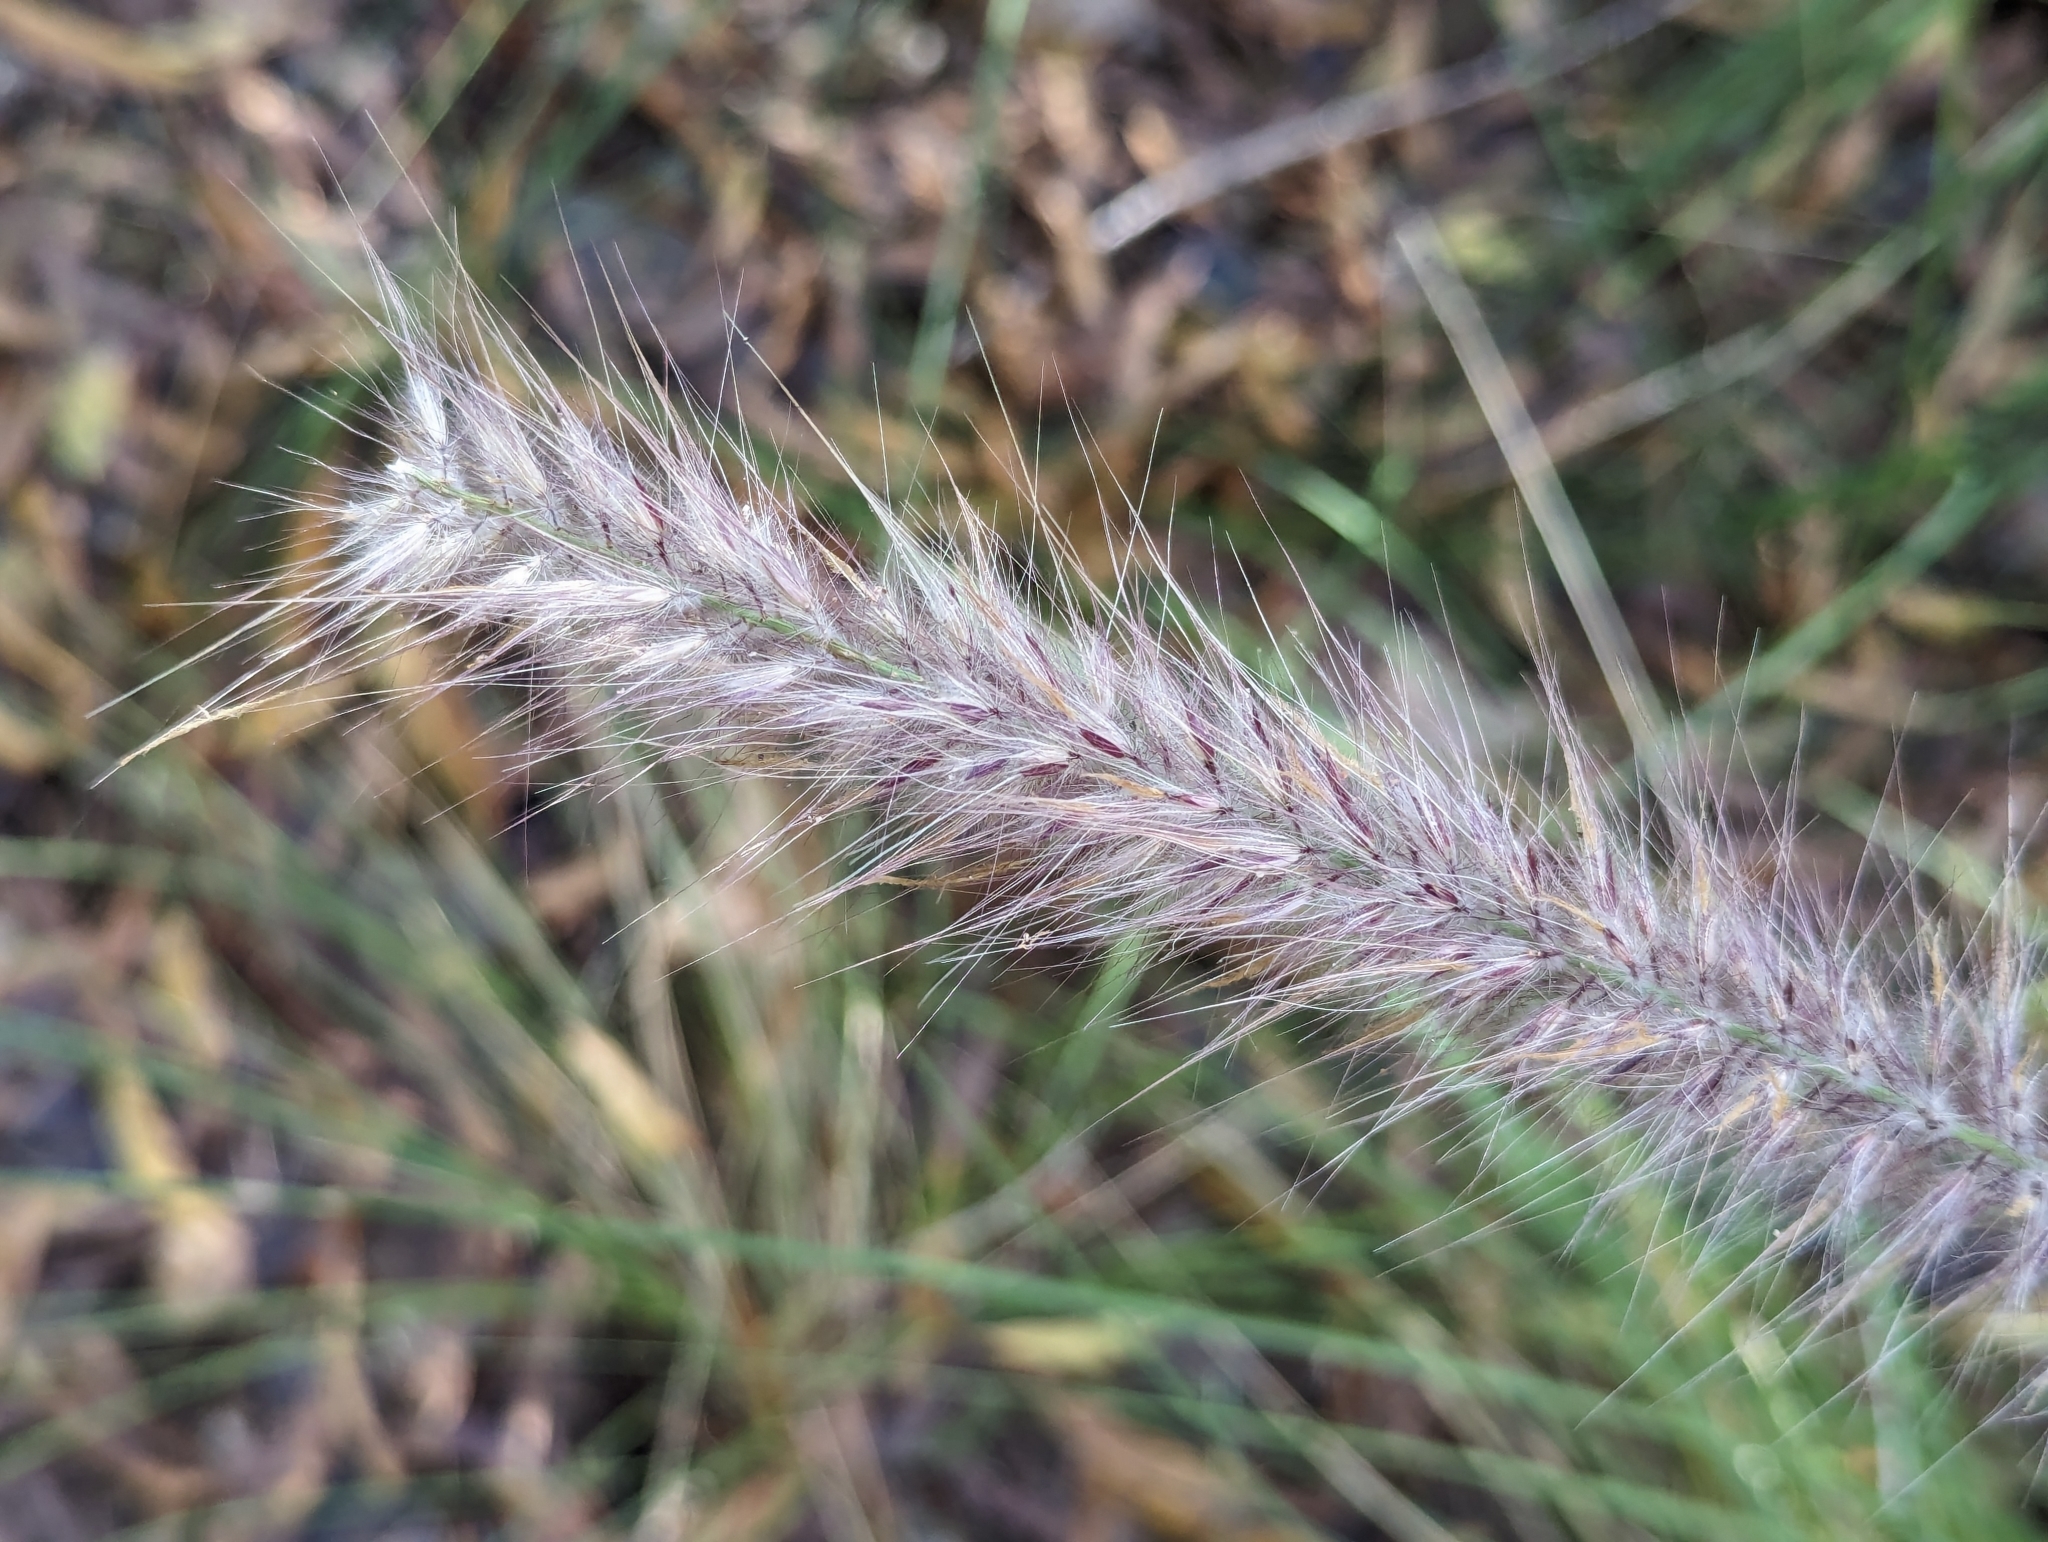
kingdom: Plantae
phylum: Tracheophyta
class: Liliopsida
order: Poales
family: Poaceae
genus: Cenchrus
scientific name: Cenchrus setaceus
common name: Crimson fountaingrass
